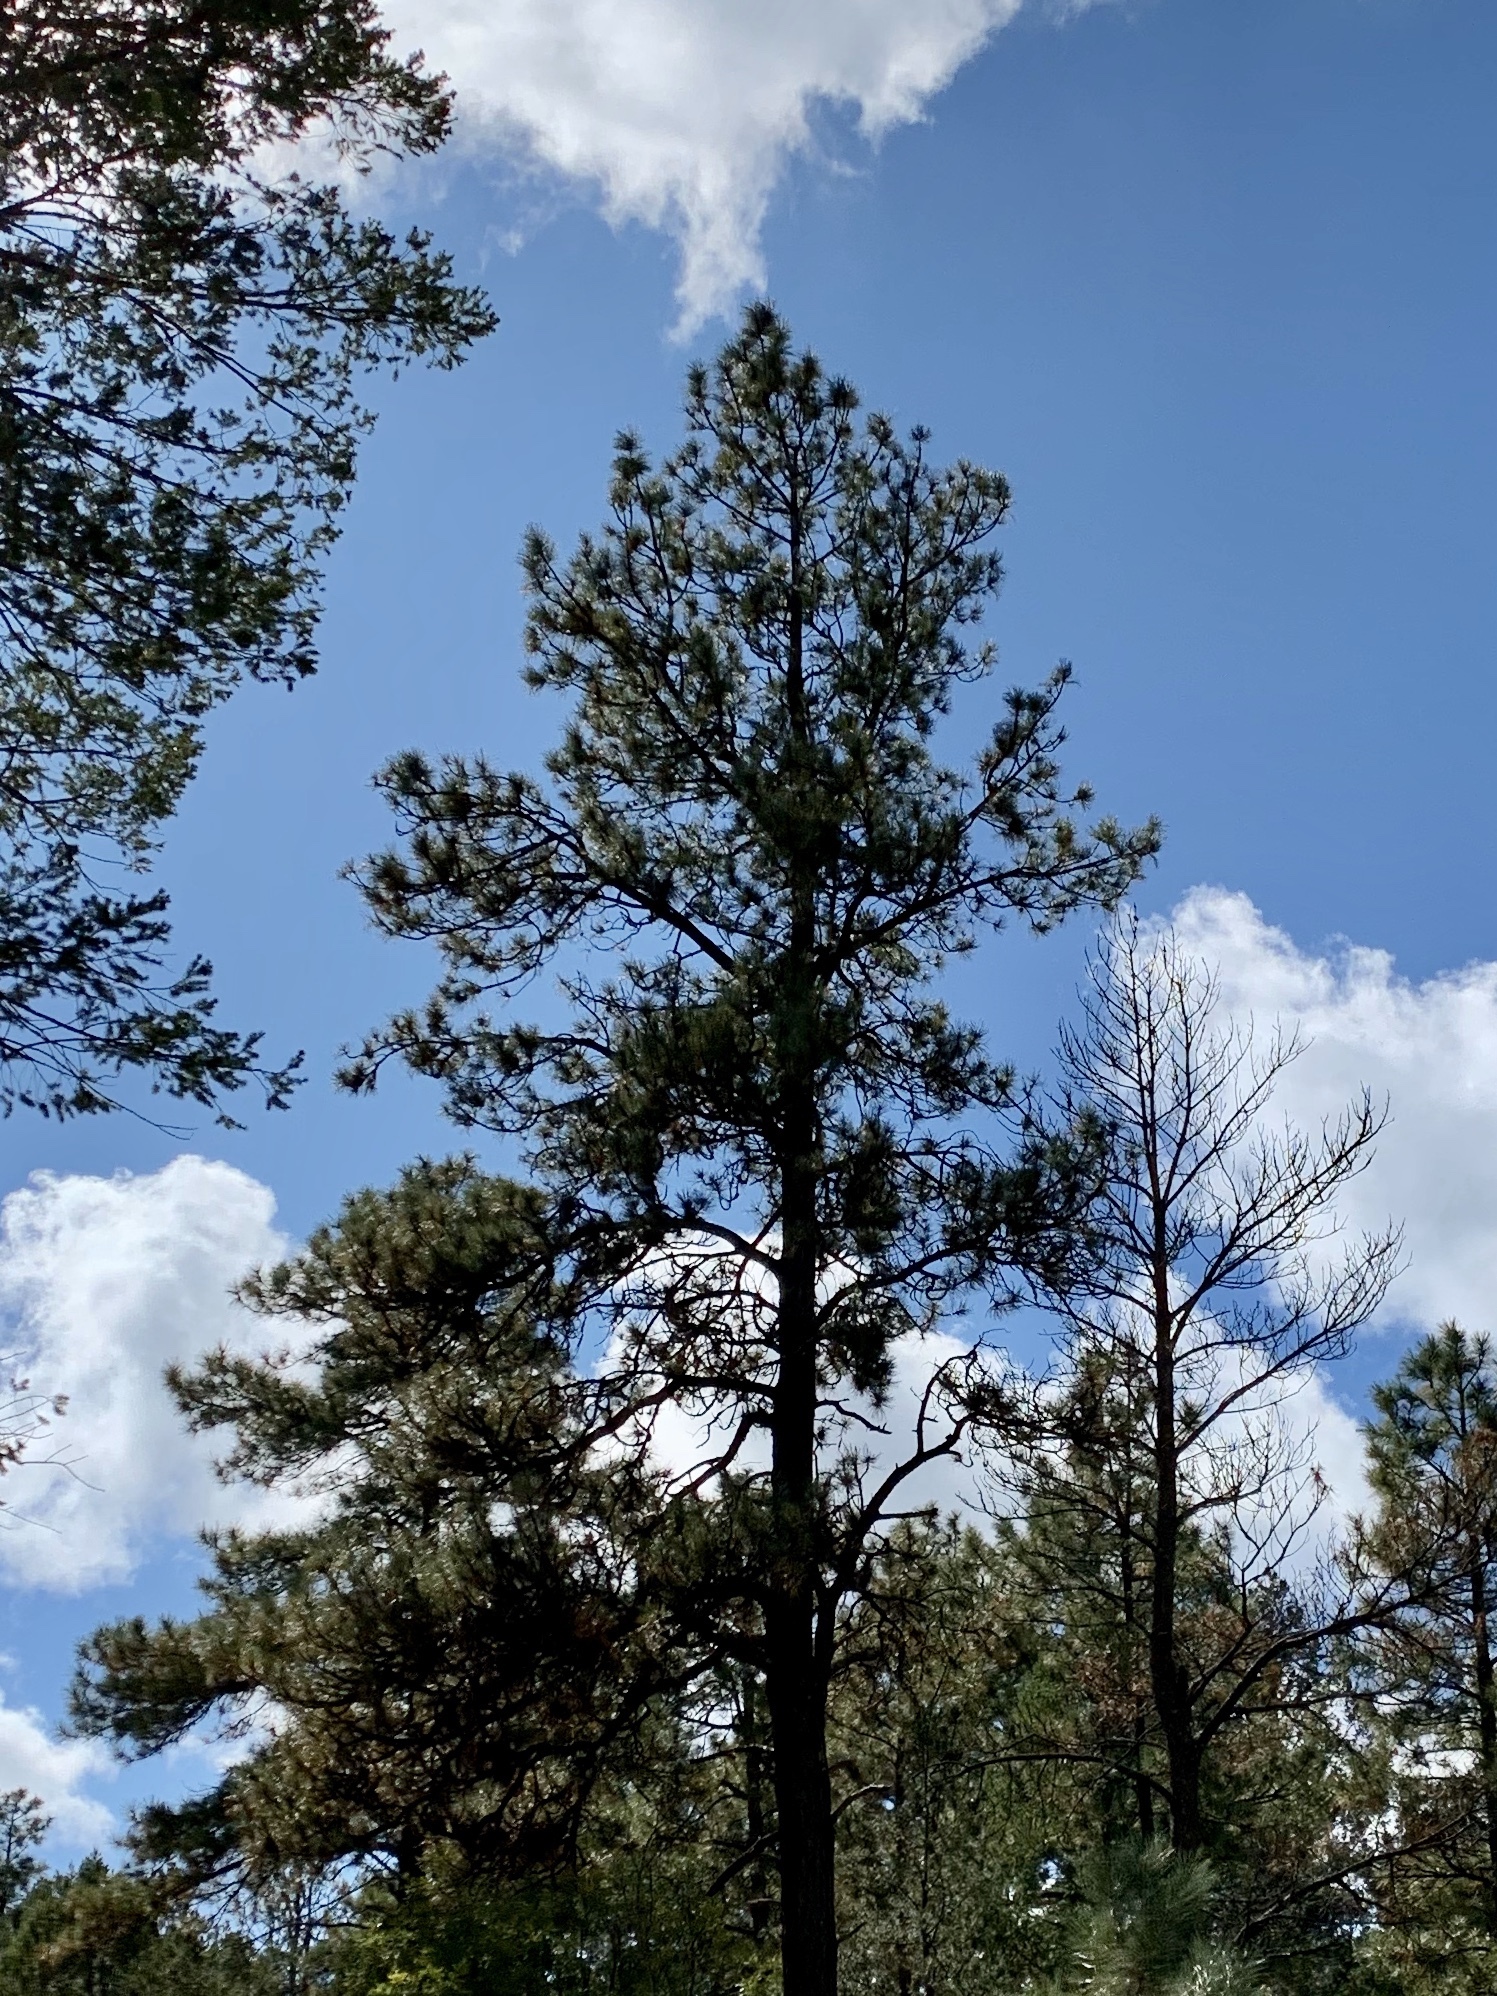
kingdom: Plantae
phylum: Tracheophyta
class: Pinopsida
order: Pinales
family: Pinaceae
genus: Pinus
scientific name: Pinus ponderosa
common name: Western yellow-pine
